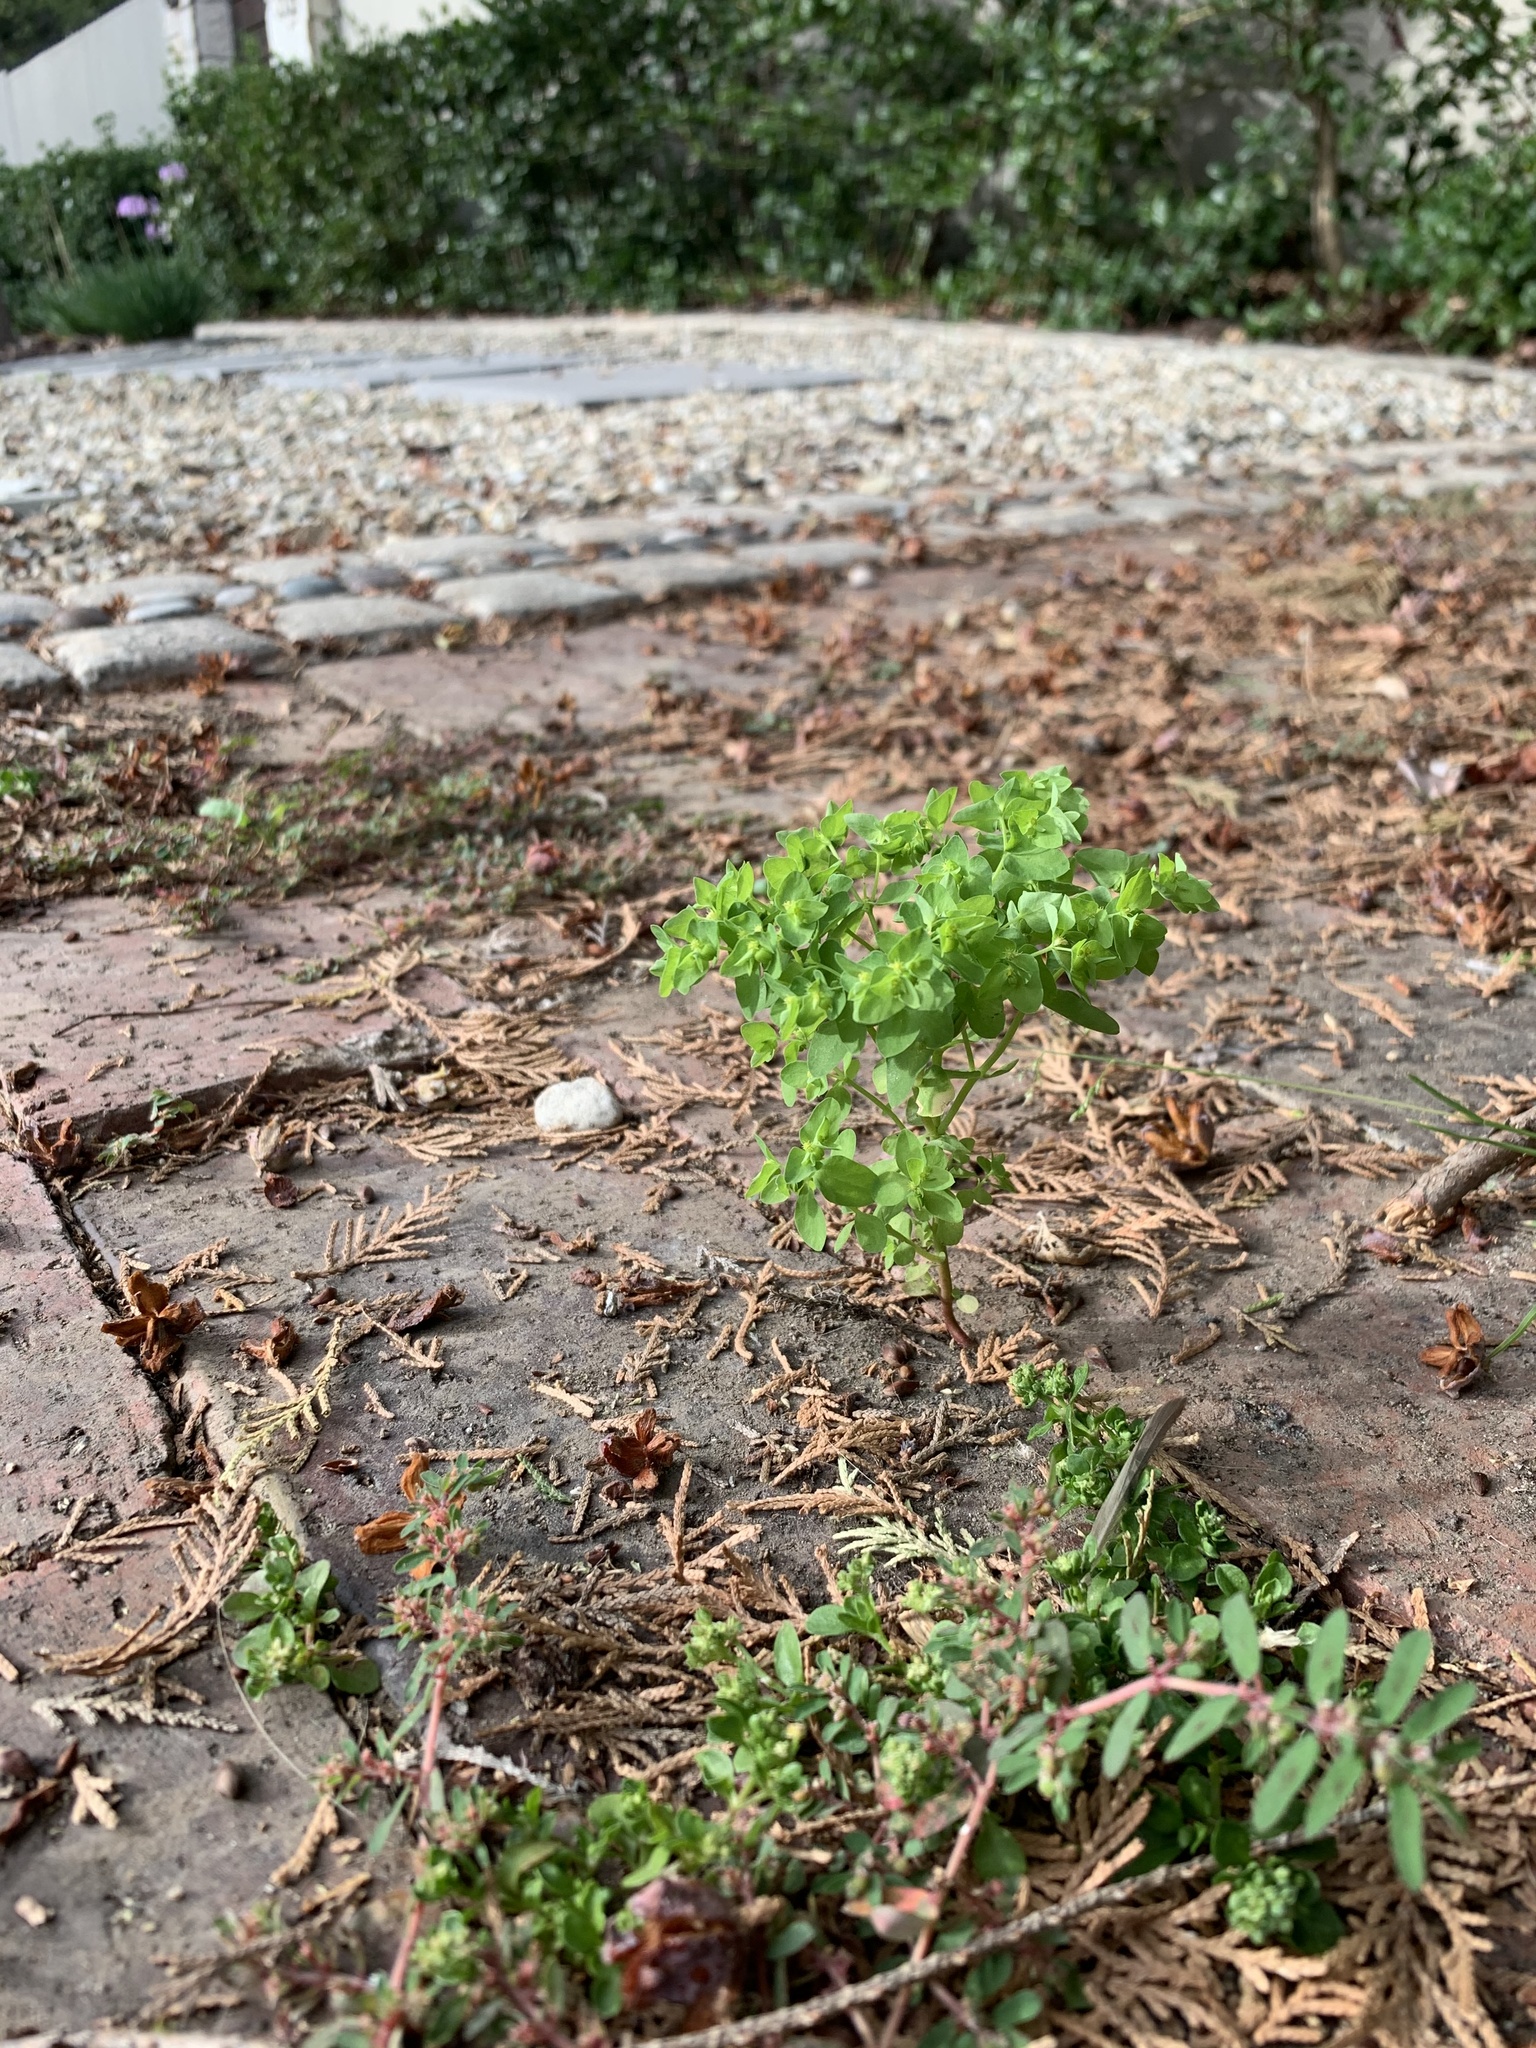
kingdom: Plantae
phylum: Tracheophyta
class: Magnoliopsida
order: Malpighiales
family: Euphorbiaceae
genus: Euphorbia
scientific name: Euphorbia peplus
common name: Petty spurge
